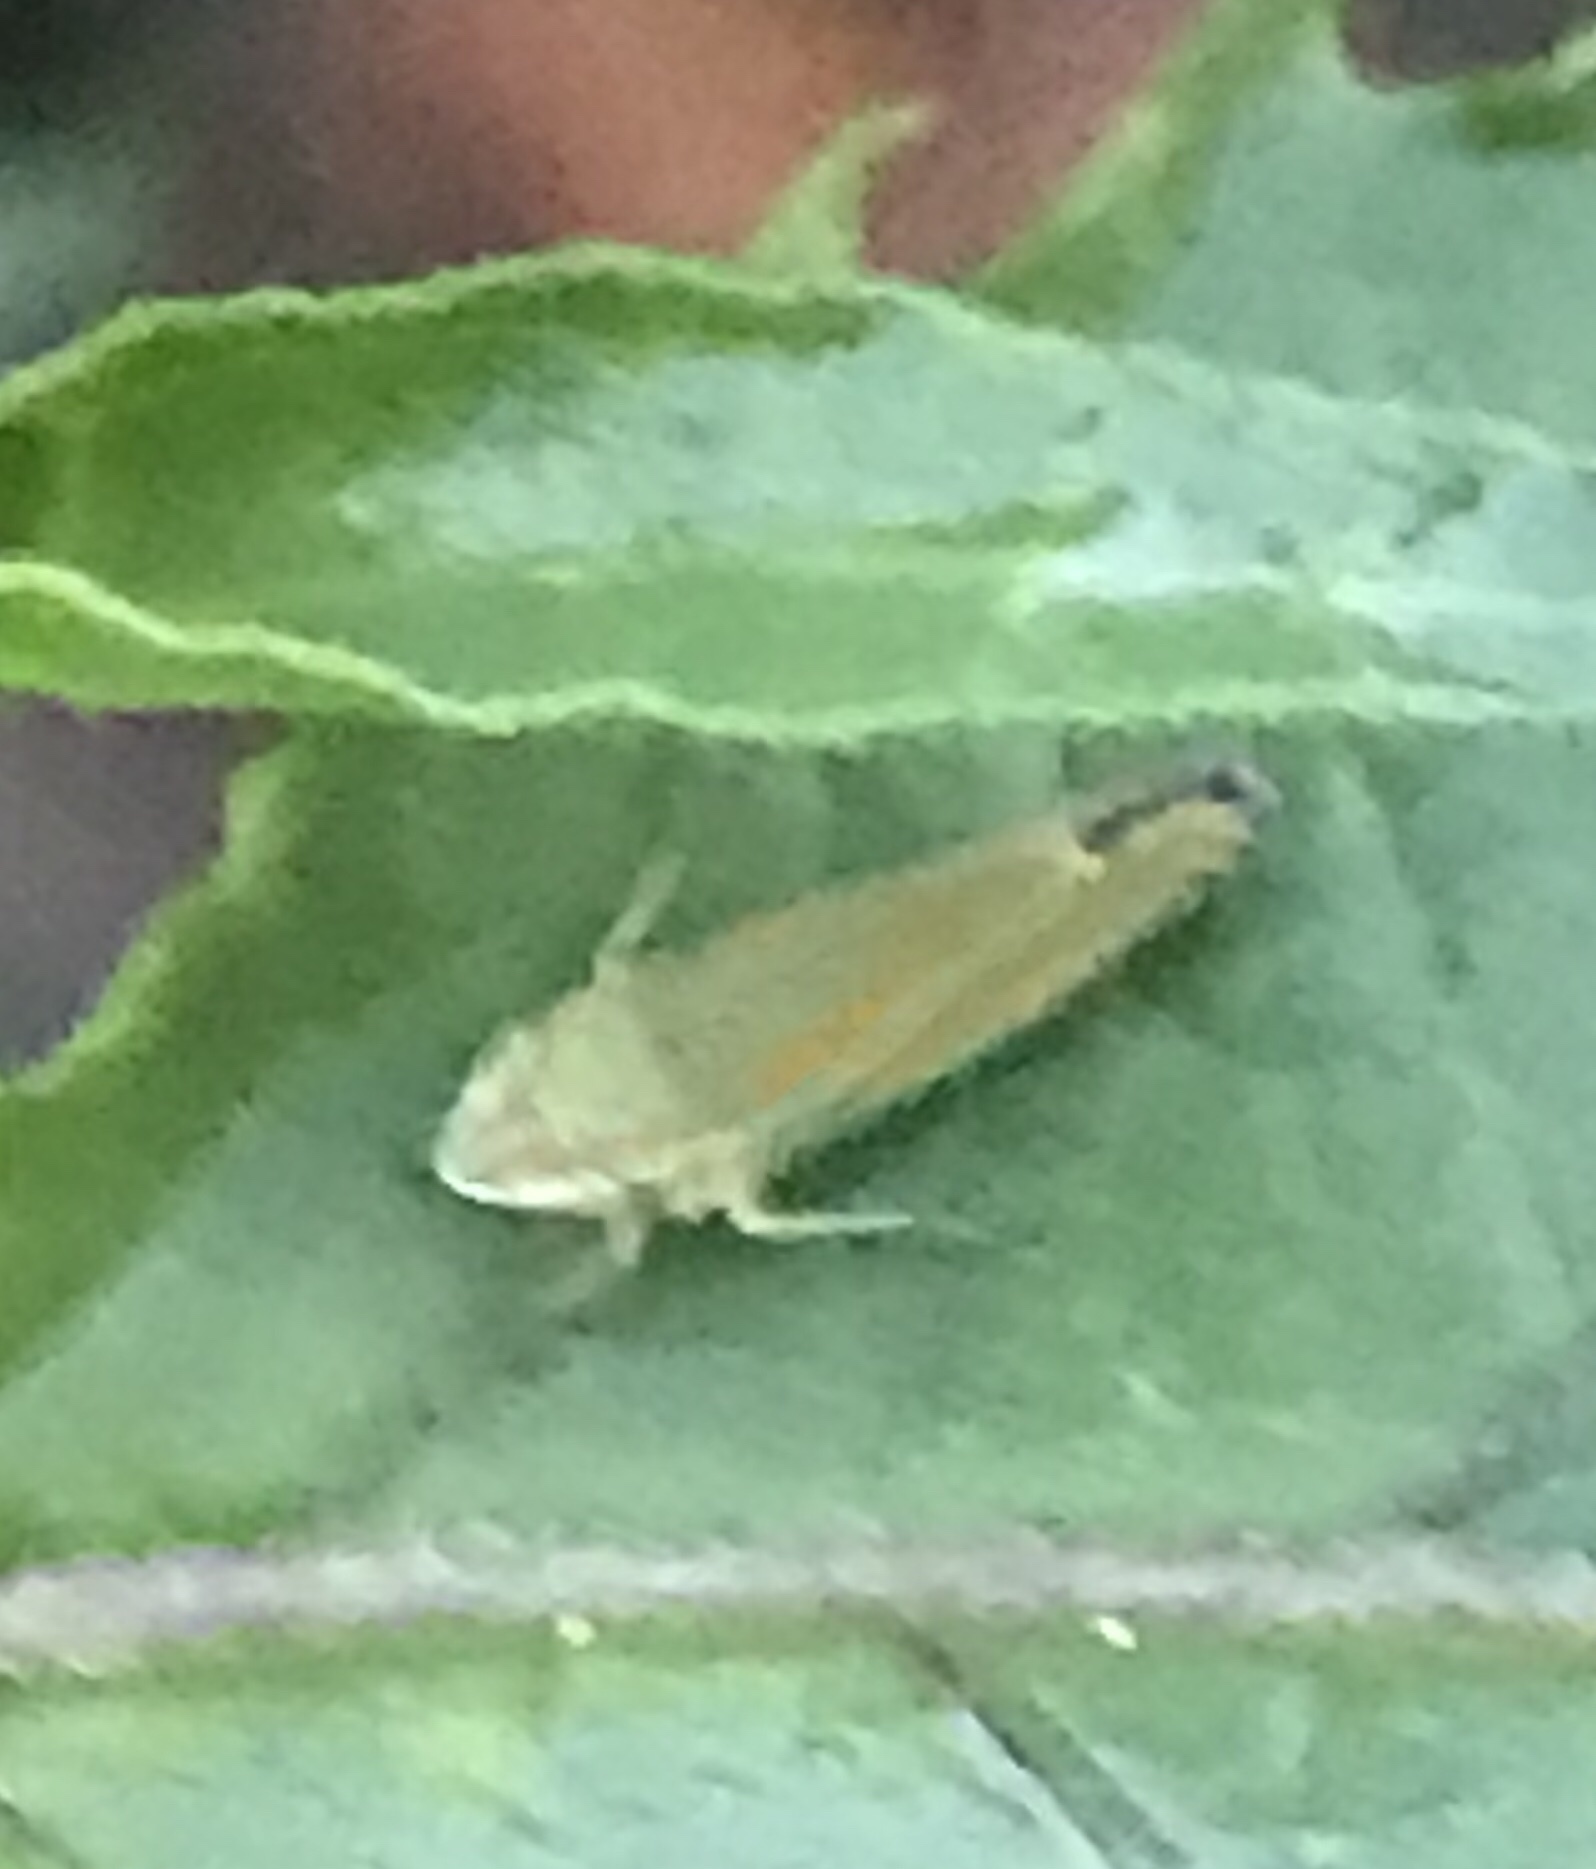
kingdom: Animalia
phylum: Arthropoda
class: Insecta
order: Hemiptera
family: Cicadellidae
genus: Graphocephala
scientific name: Graphocephala versuta
